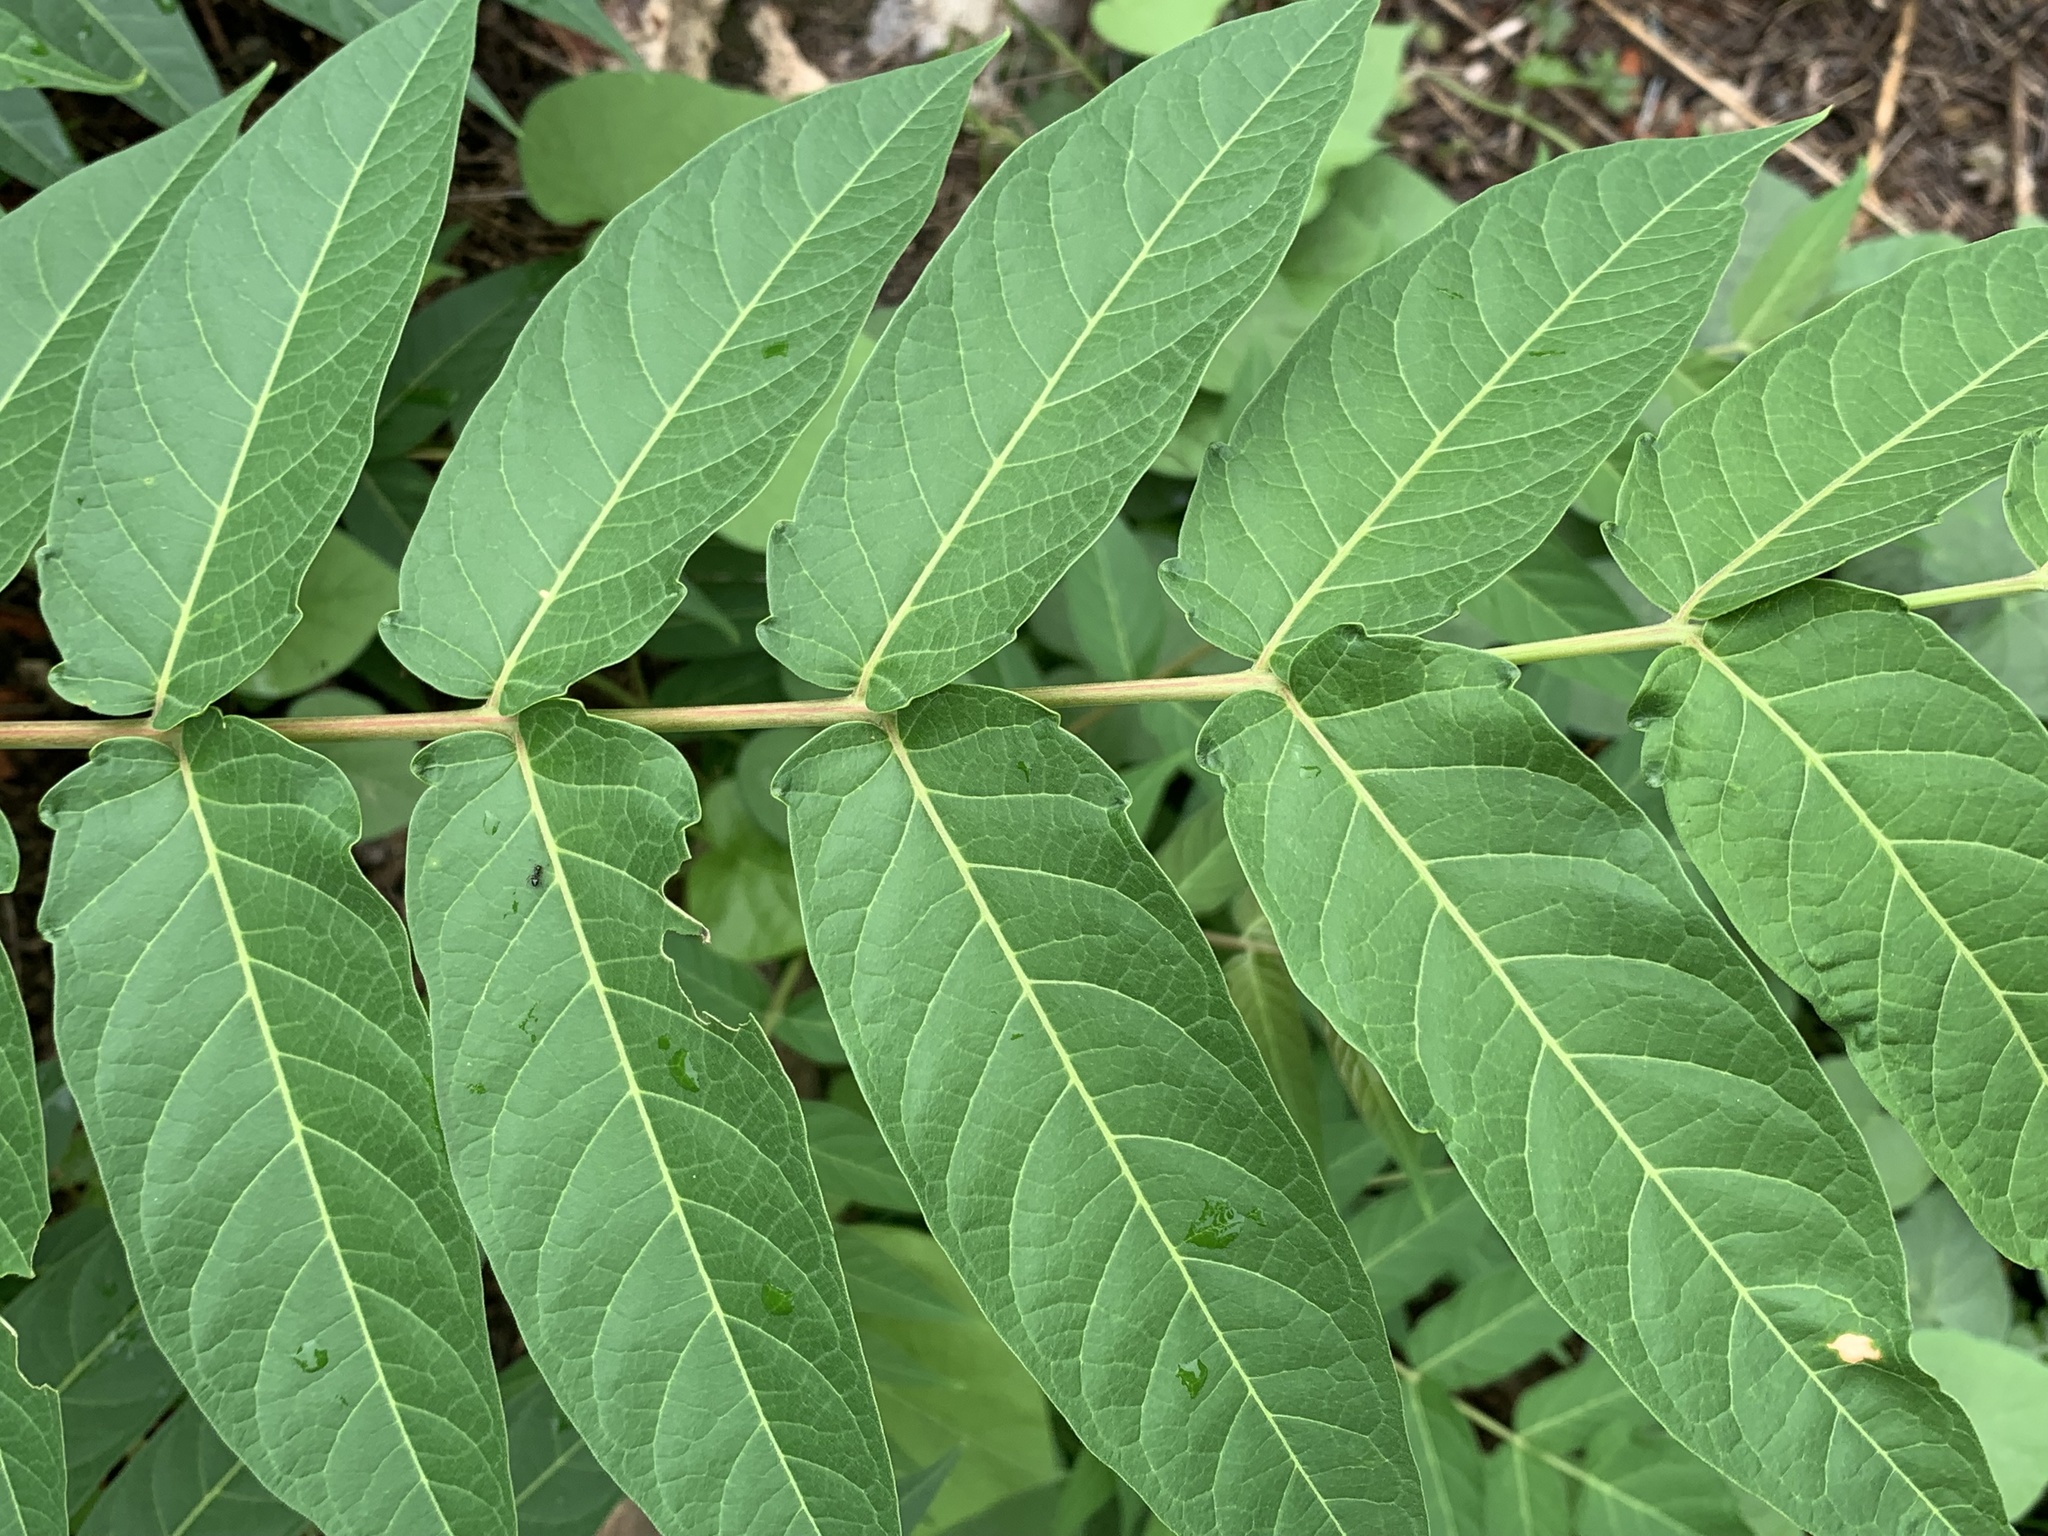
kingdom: Plantae
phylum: Tracheophyta
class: Magnoliopsida
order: Sapindales
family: Simaroubaceae
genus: Ailanthus
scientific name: Ailanthus altissima
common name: Tree-of-heaven
